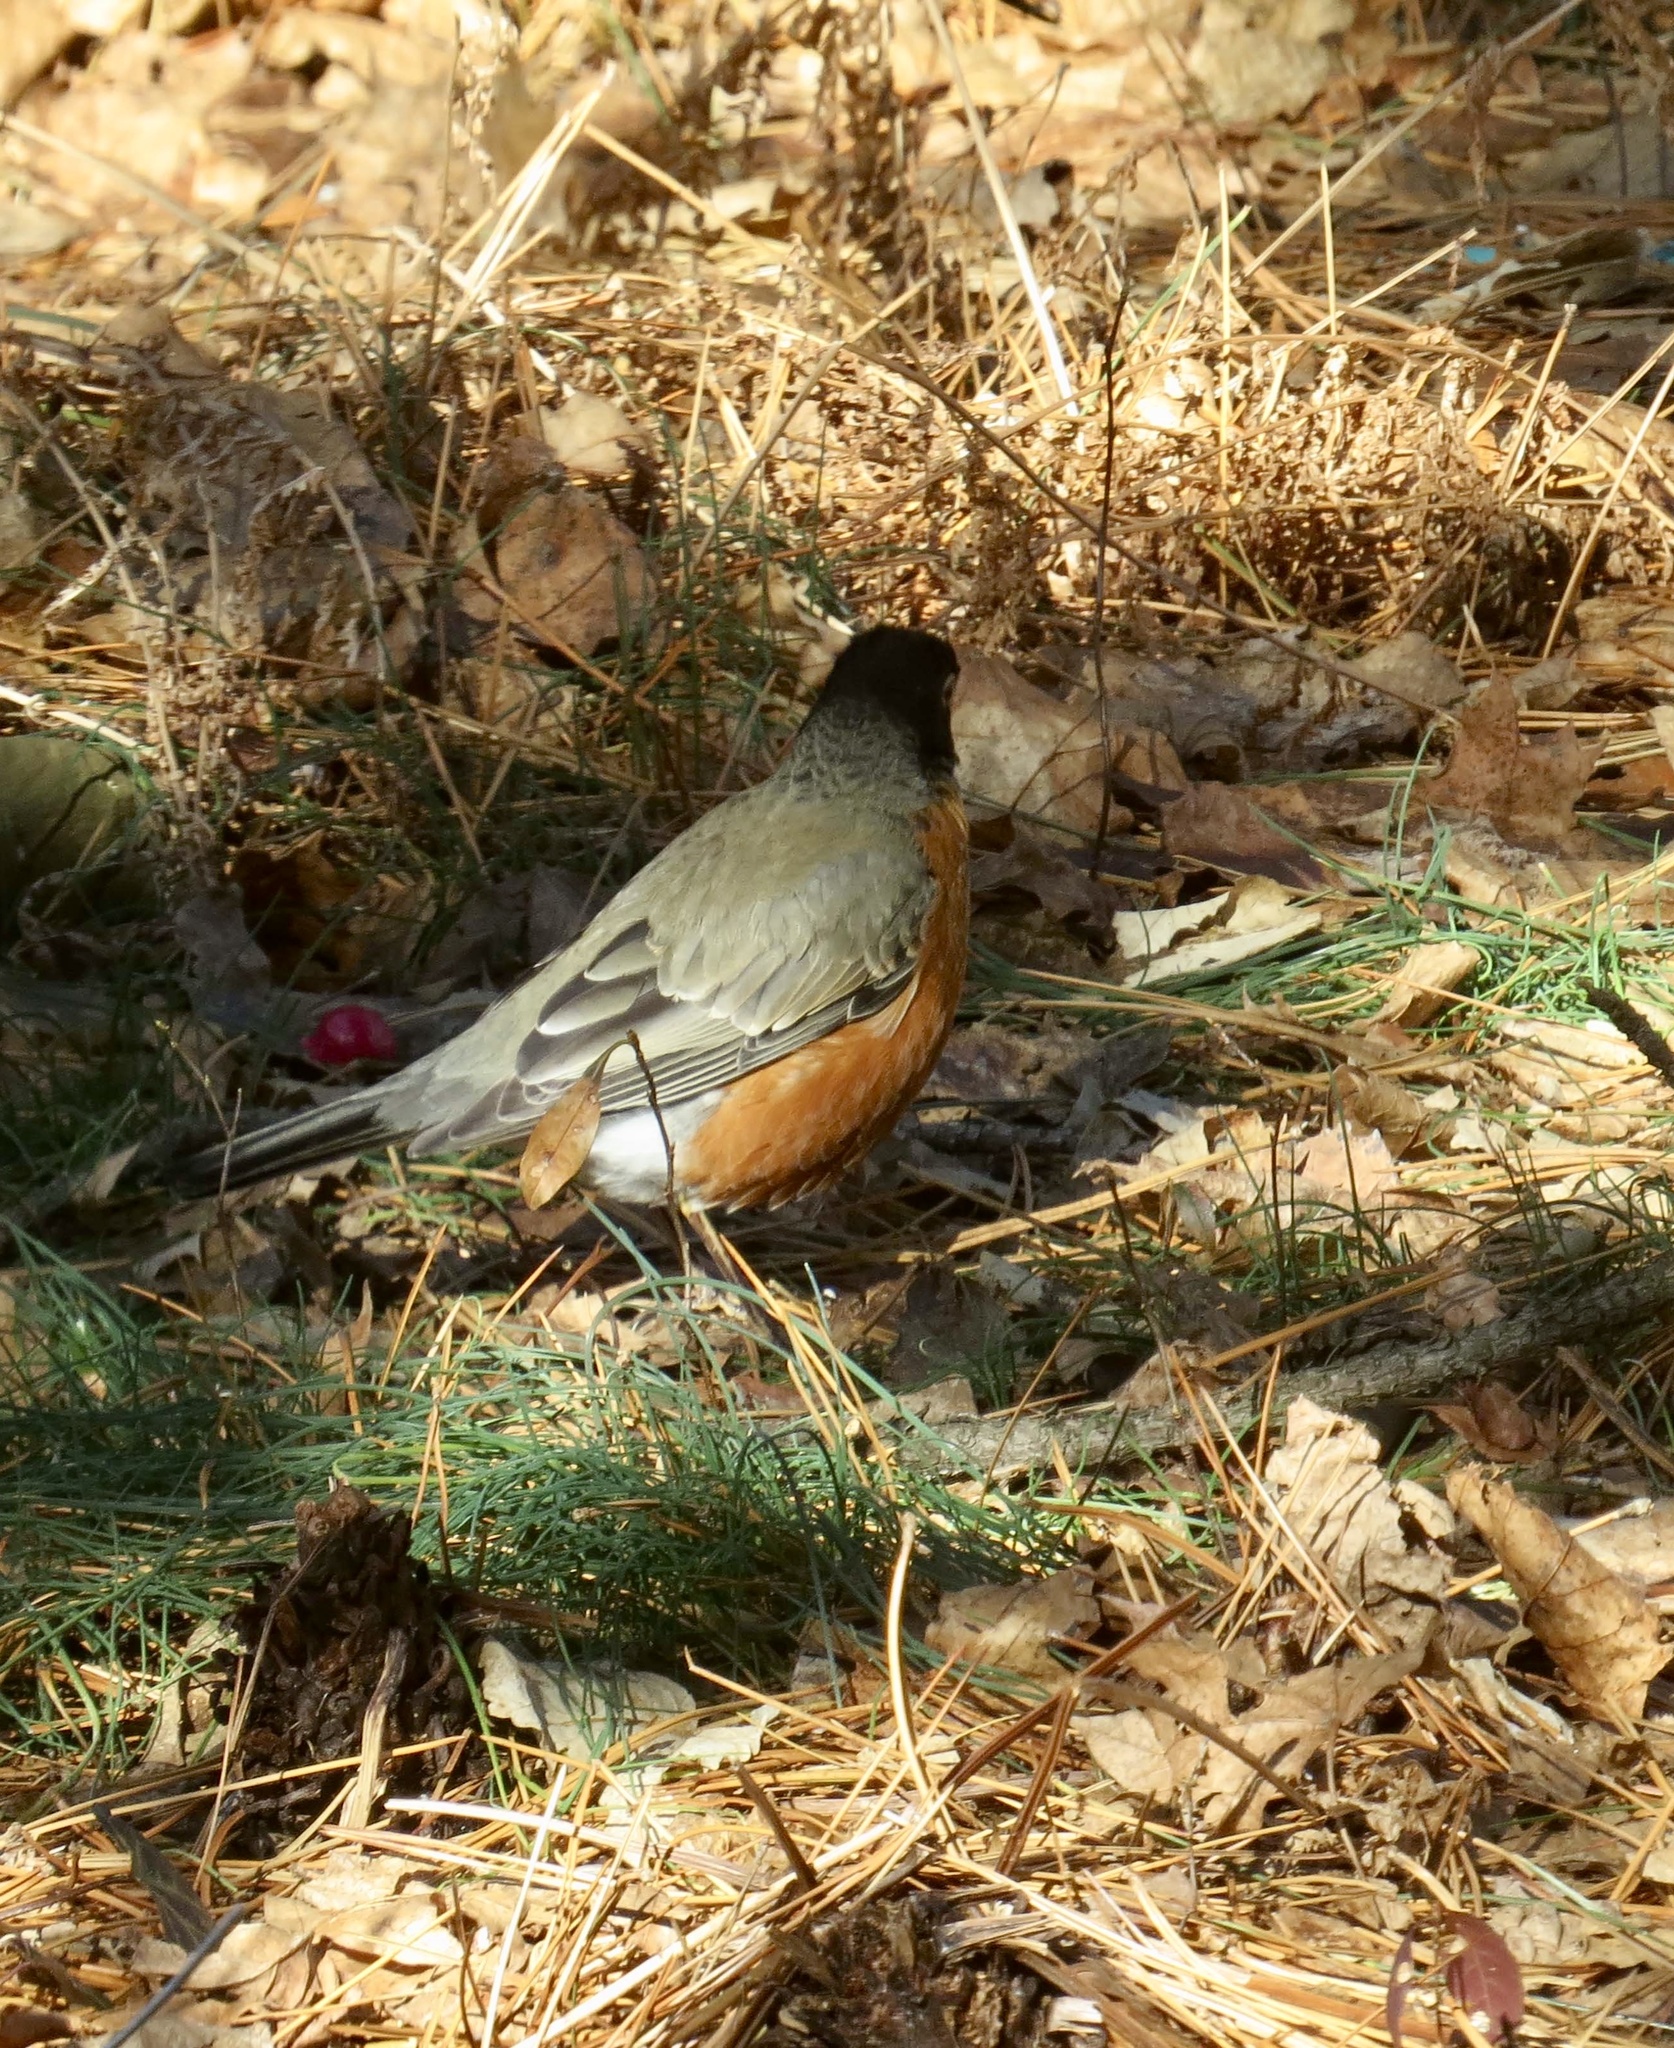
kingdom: Animalia
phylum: Chordata
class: Aves
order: Passeriformes
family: Turdidae
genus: Turdus
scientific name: Turdus migratorius
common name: American robin
